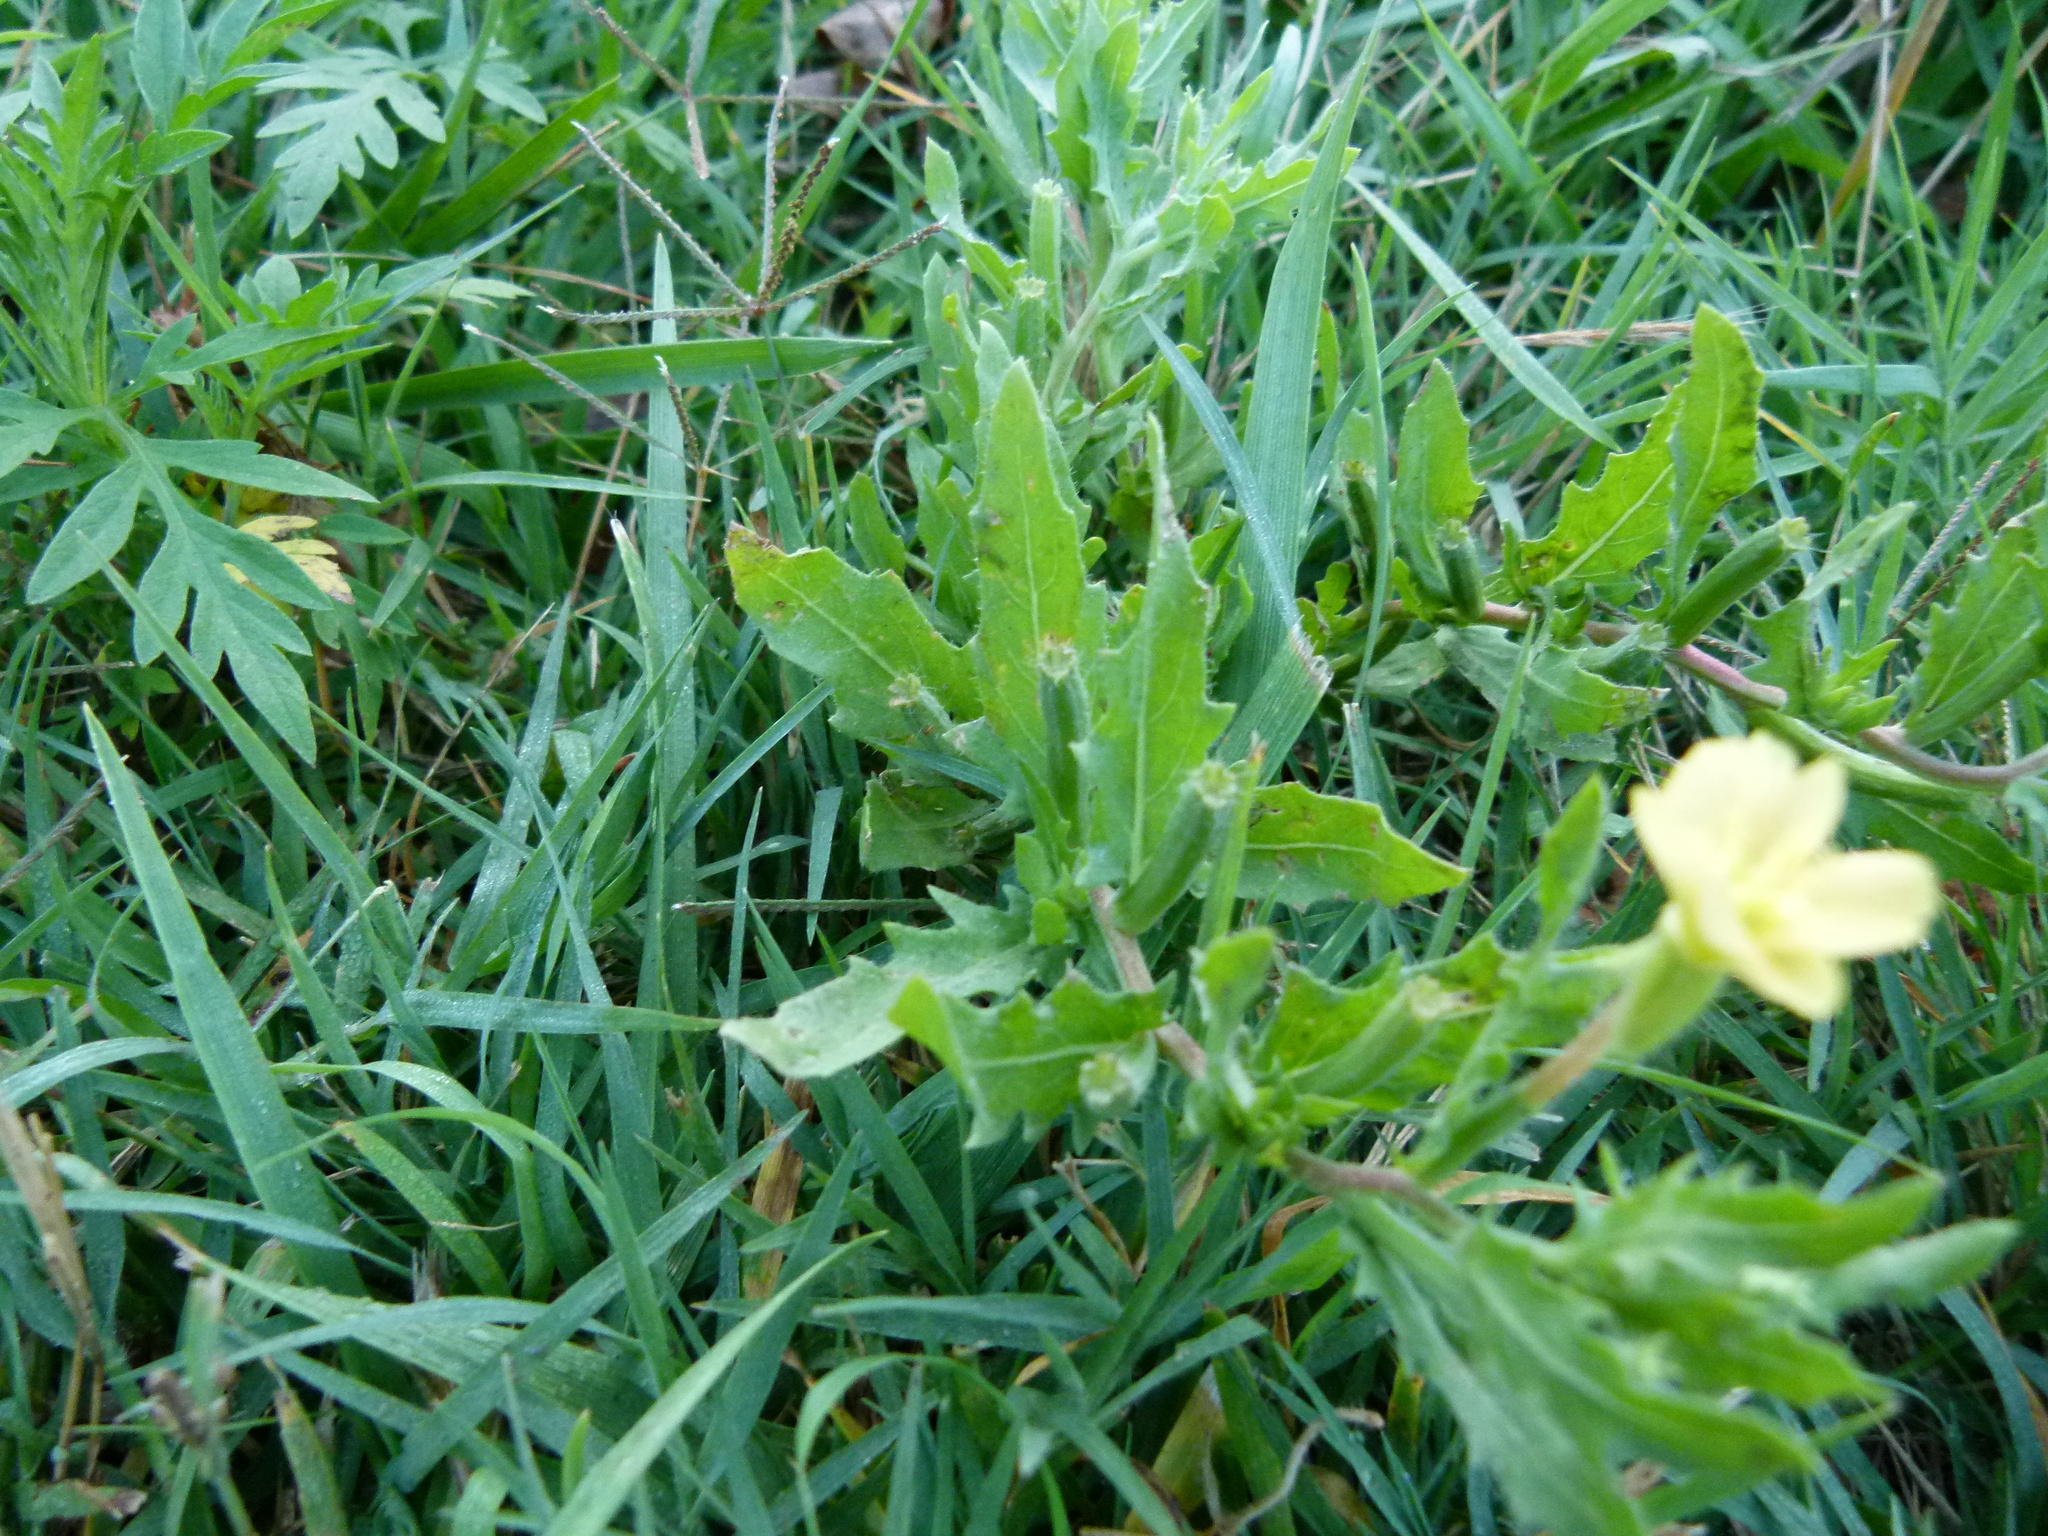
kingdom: Plantae
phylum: Tracheophyta
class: Magnoliopsida
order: Myrtales
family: Onagraceae
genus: Oenothera
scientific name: Oenothera laciniata
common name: Cut-leaved evening-primrose
